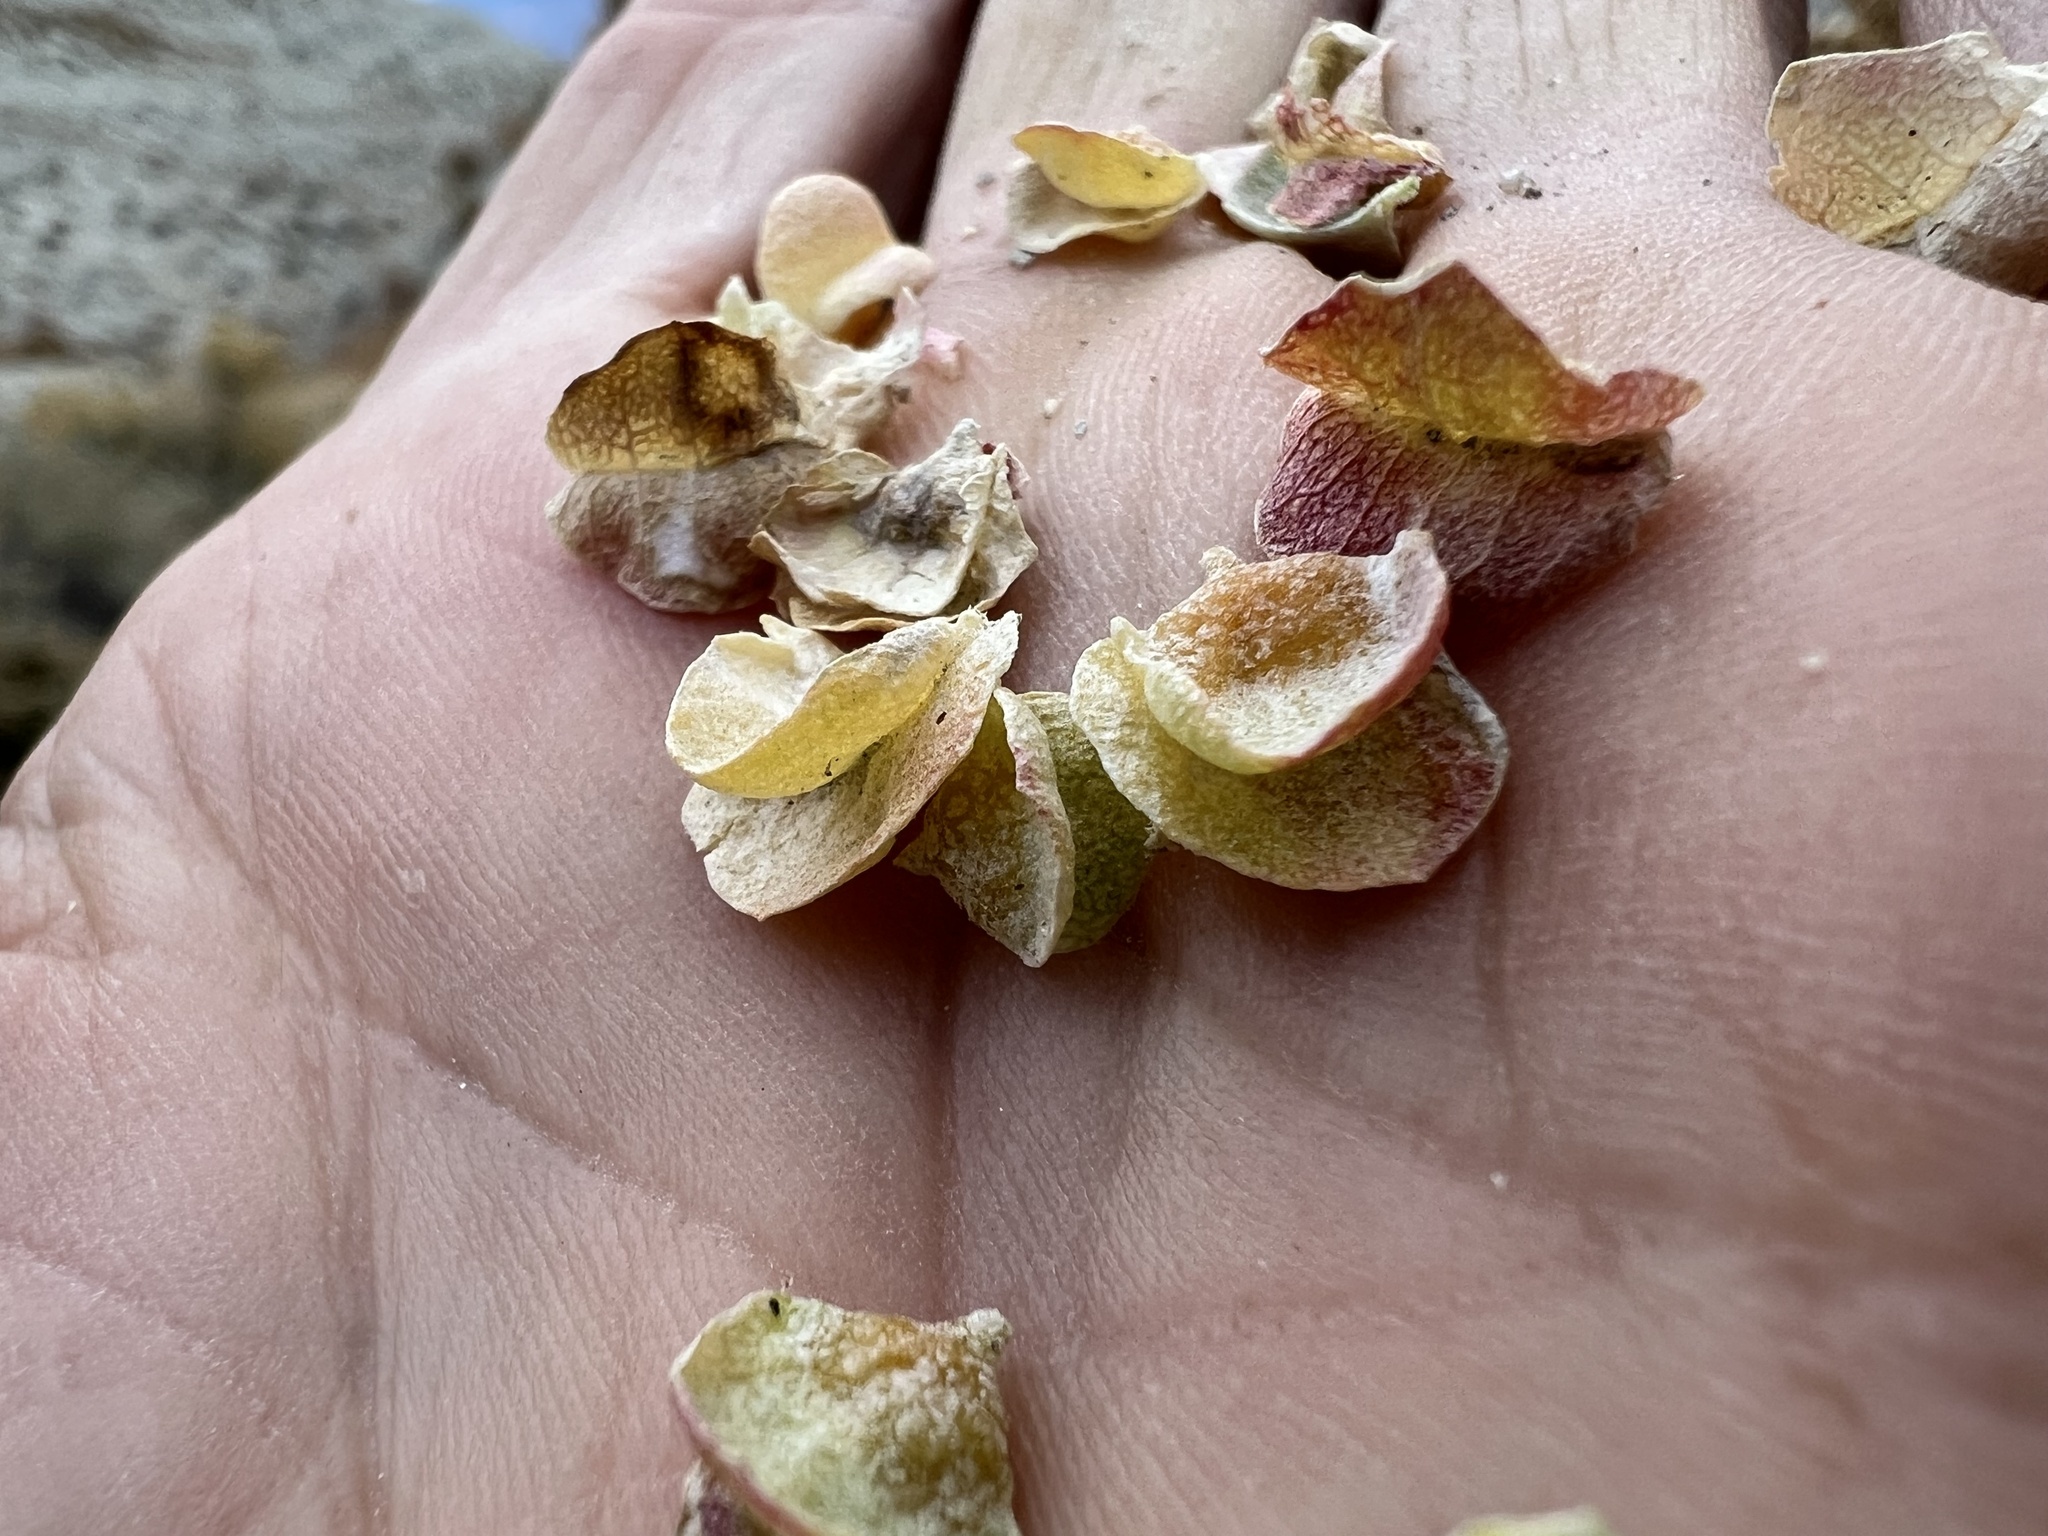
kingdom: Plantae
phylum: Tracheophyta
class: Magnoliopsida
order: Caryophyllales
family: Amaranthaceae
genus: Atriplex
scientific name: Atriplex confertifolia
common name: Shadscale
